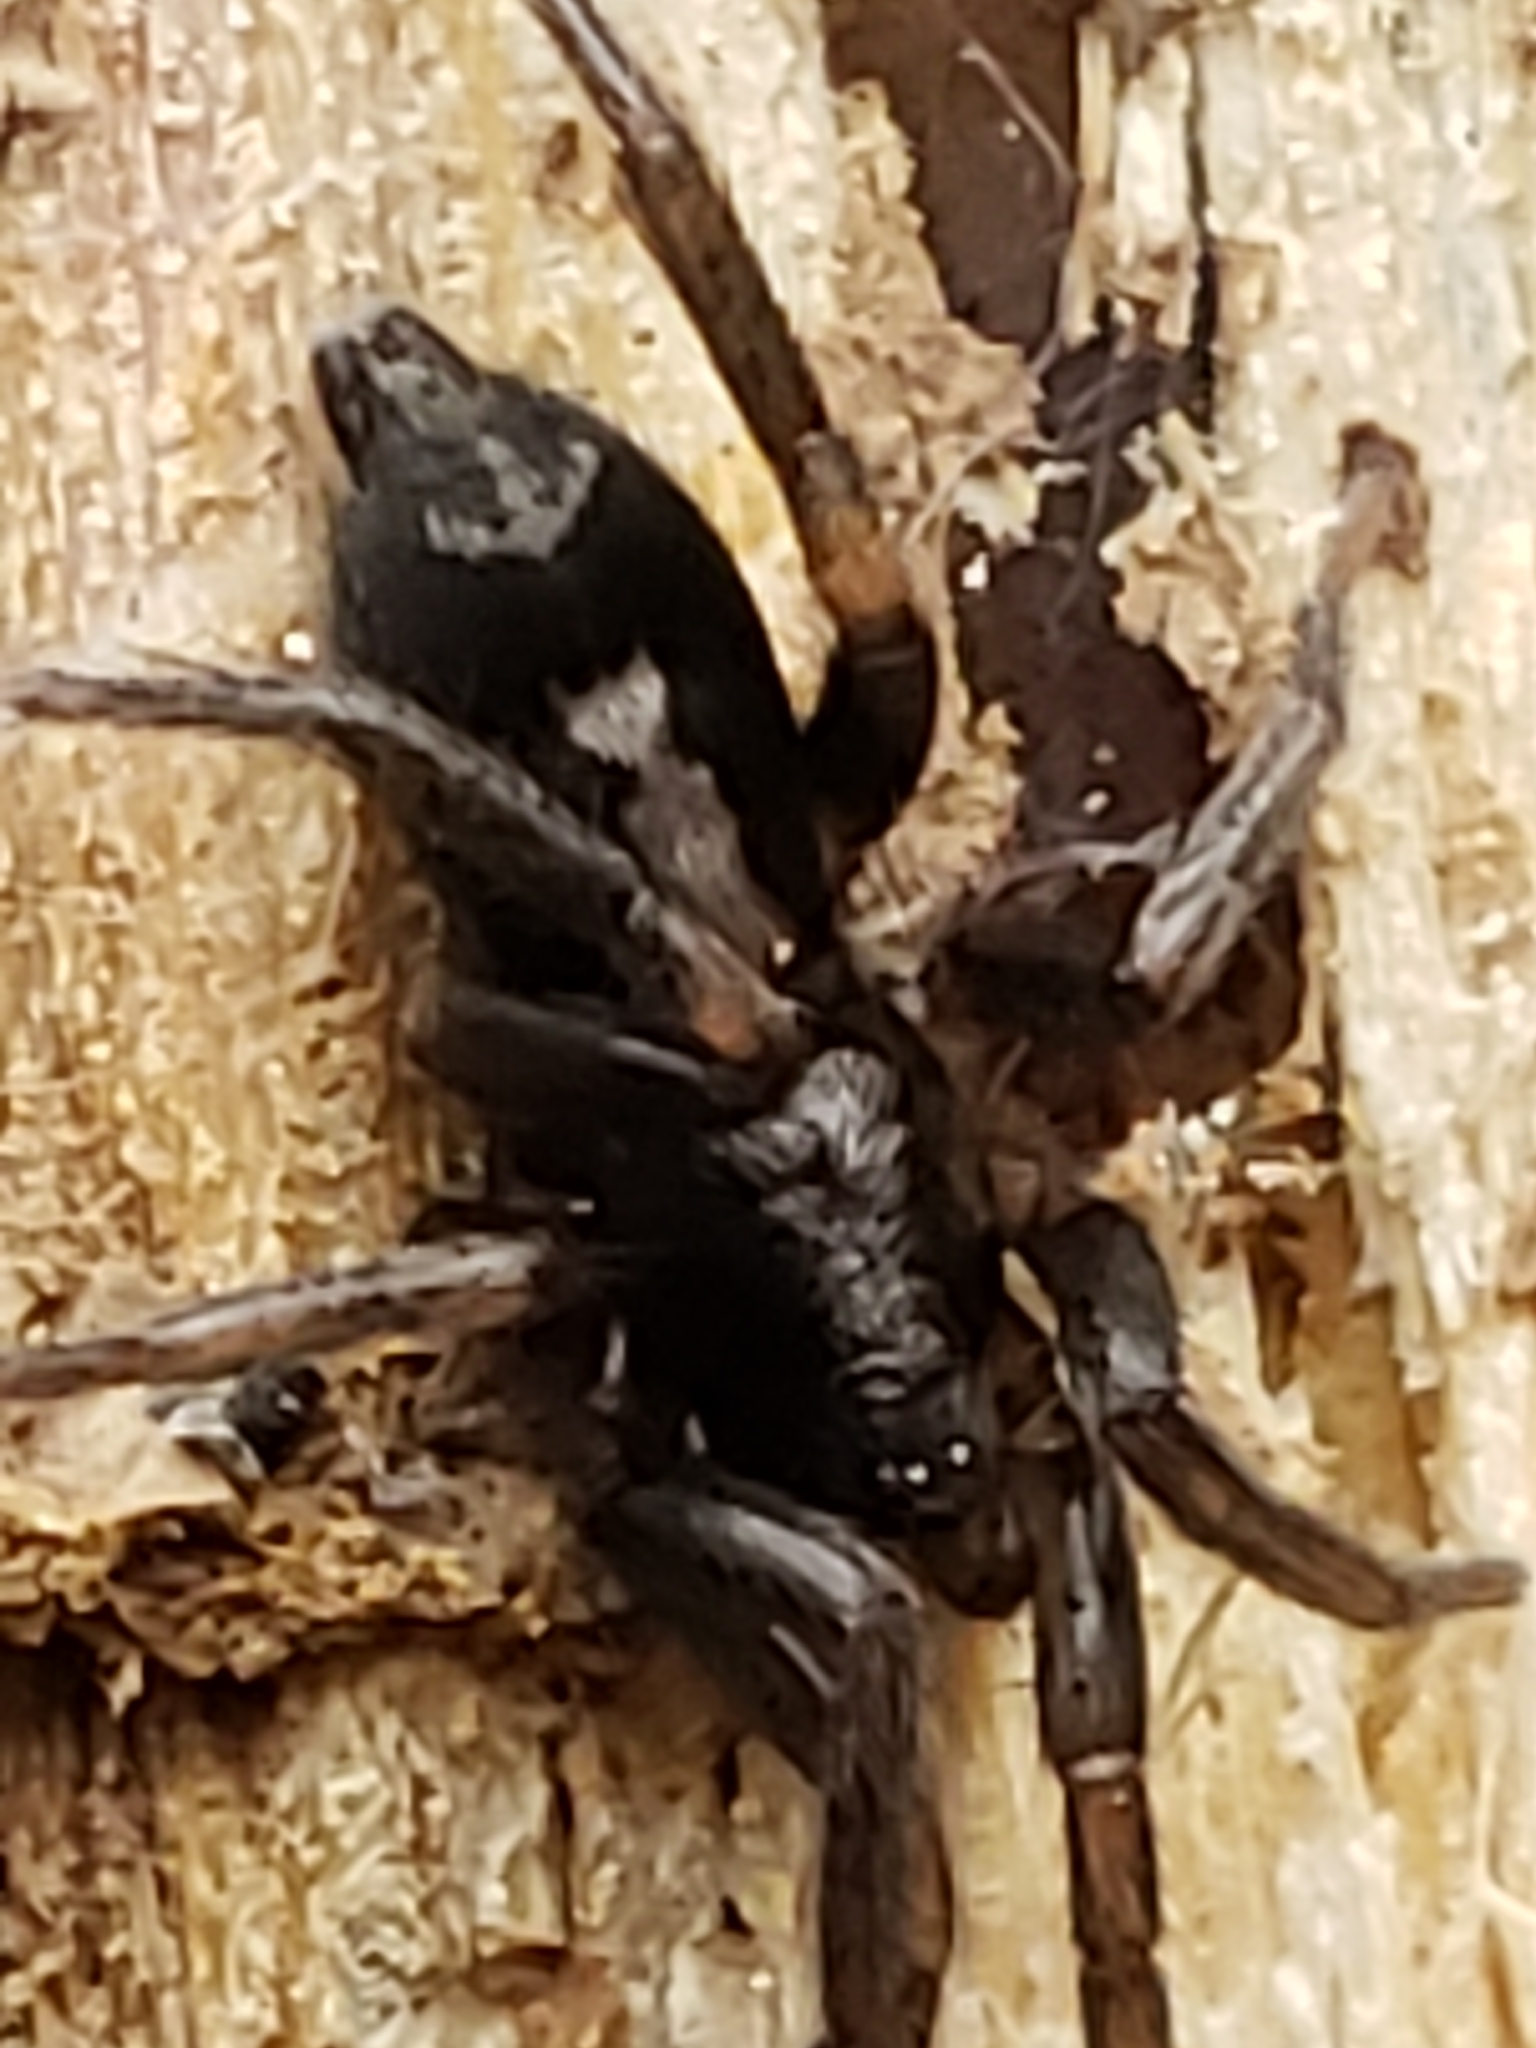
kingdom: Animalia
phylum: Arthropoda
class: Arachnida
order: Araneae
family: Gnaphosidae
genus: Herpyllus
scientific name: Herpyllus ecclesiasticus
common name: Eastern parson spider
